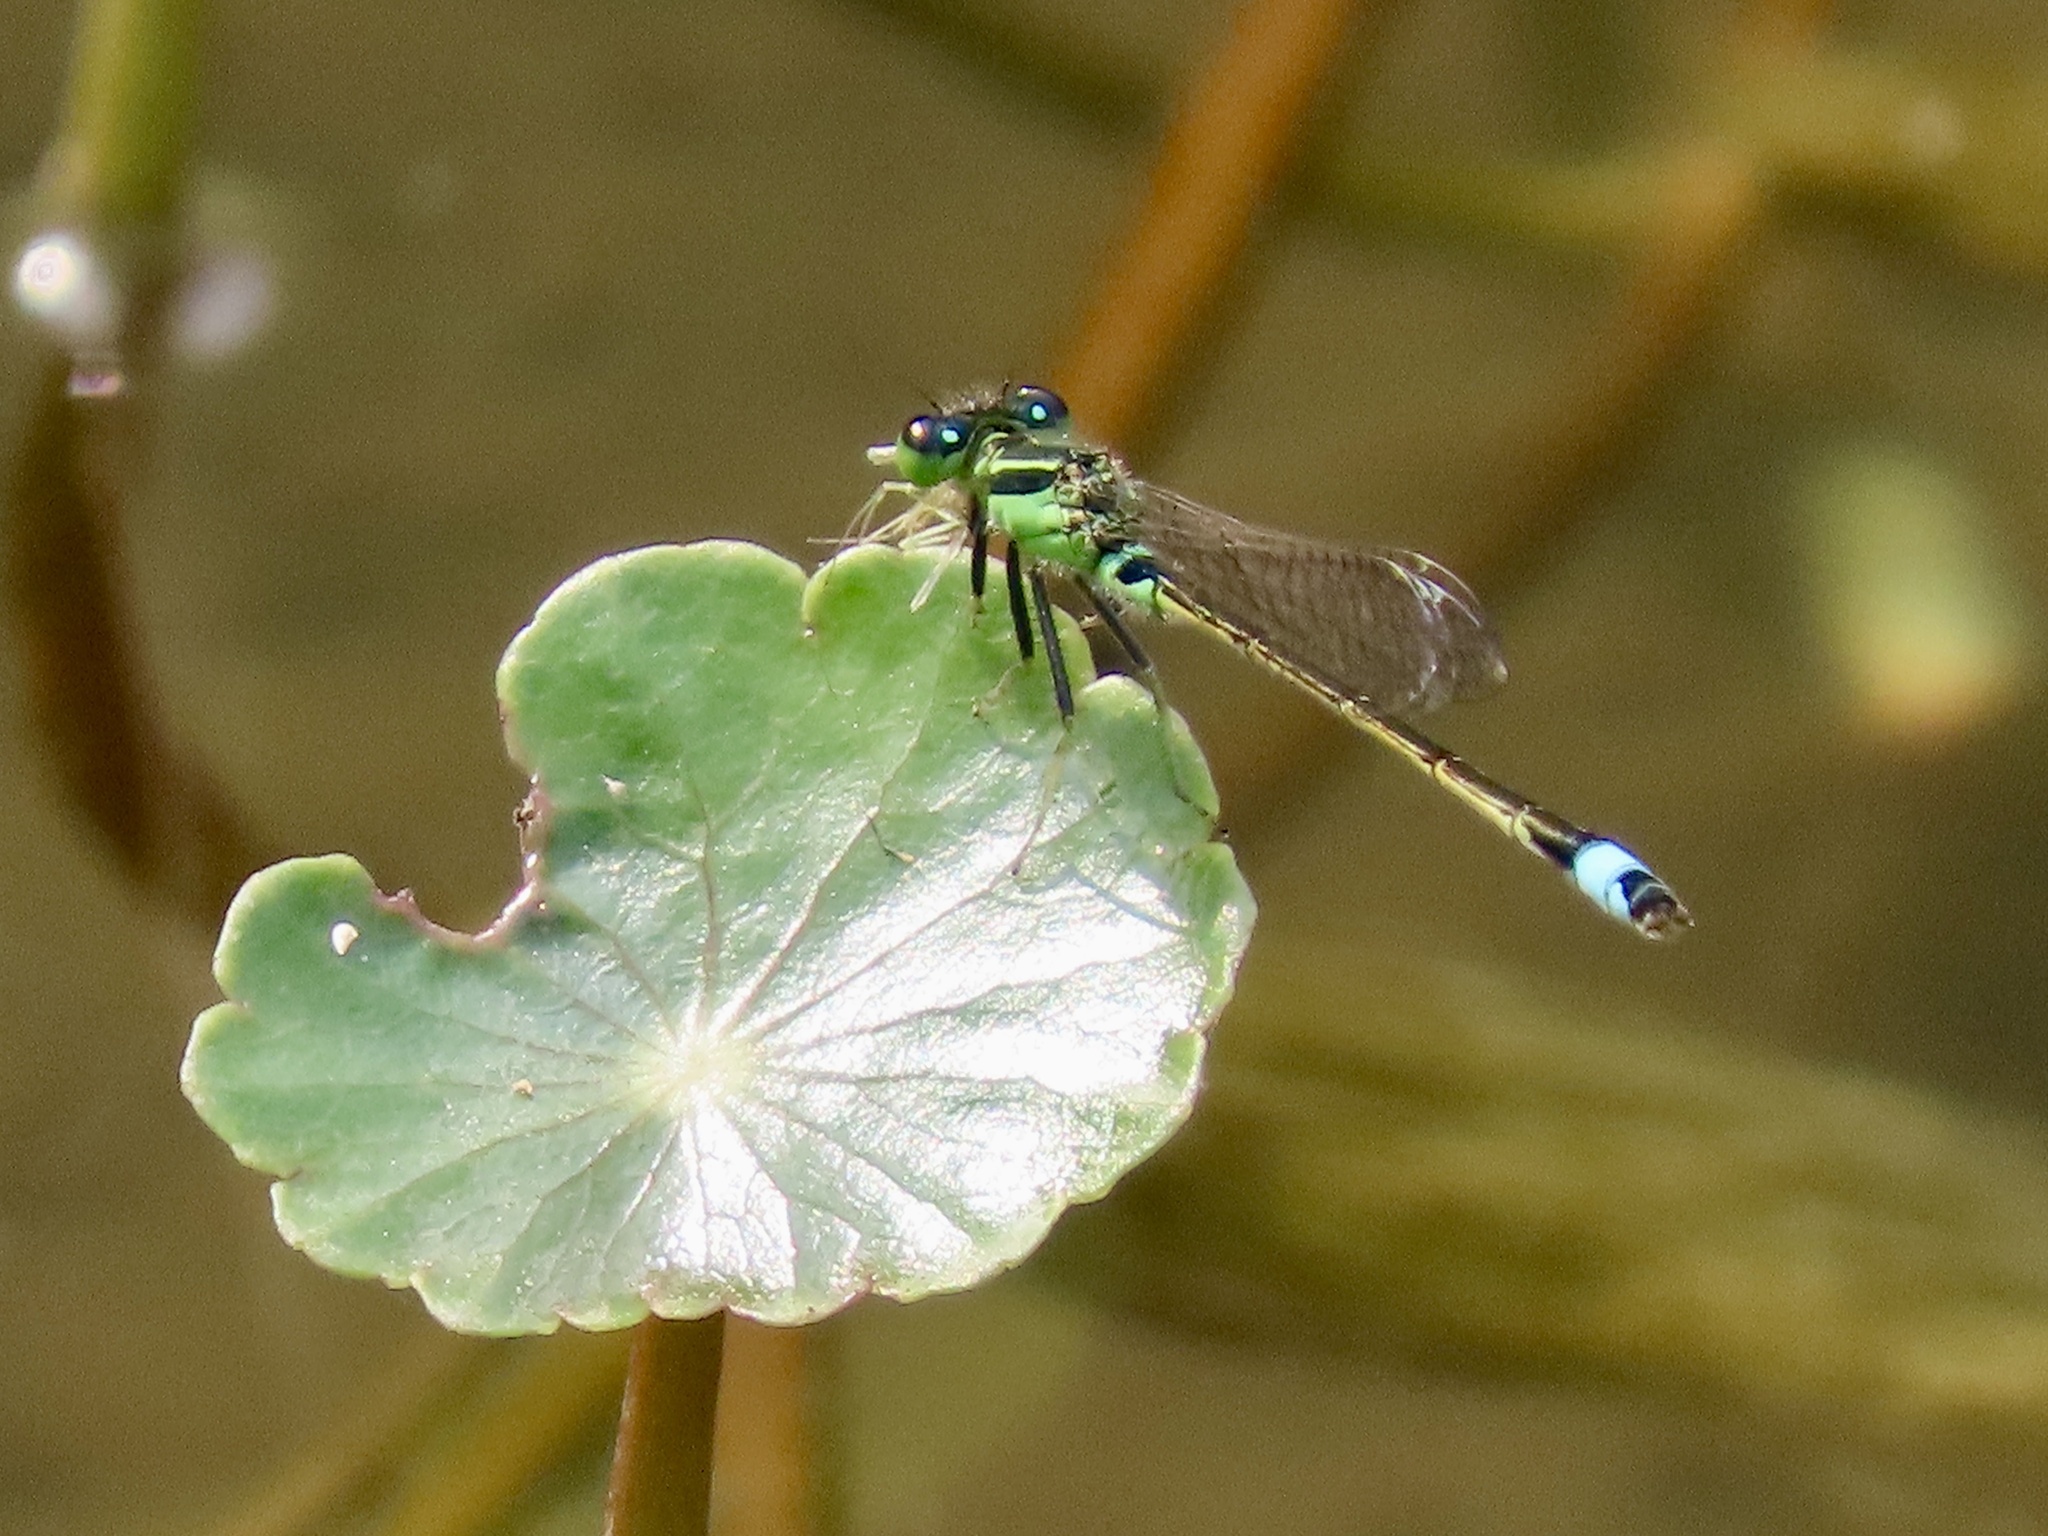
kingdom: Animalia
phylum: Arthropoda
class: Insecta
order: Odonata
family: Coenagrionidae
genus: Ischnura
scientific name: Ischnura senegalensis
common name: Tropical bluetail
